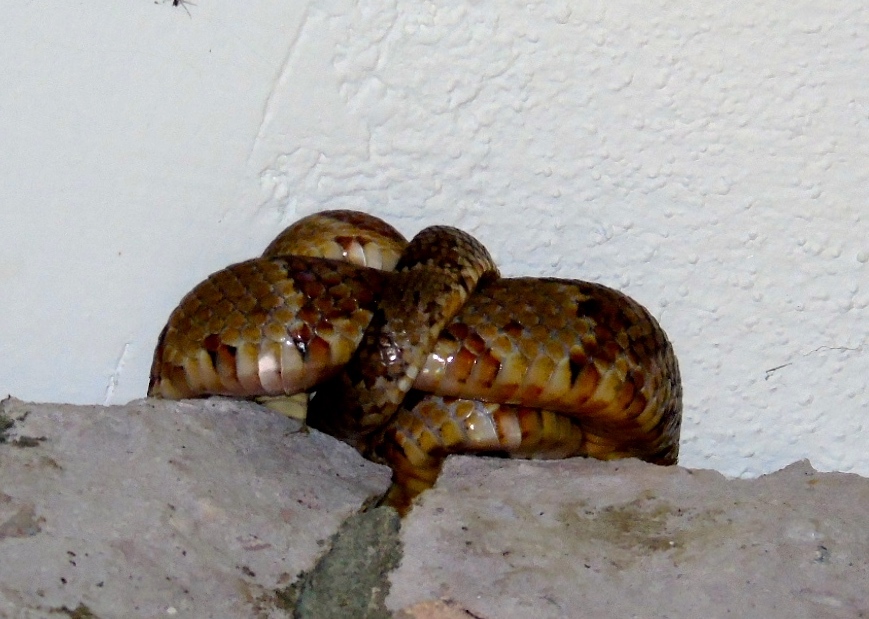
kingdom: Animalia
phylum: Chordata
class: Squamata
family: Colubridae
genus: Trimorphodon
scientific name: Trimorphodon paucimaculatus
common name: Sinaloan lyresnake
